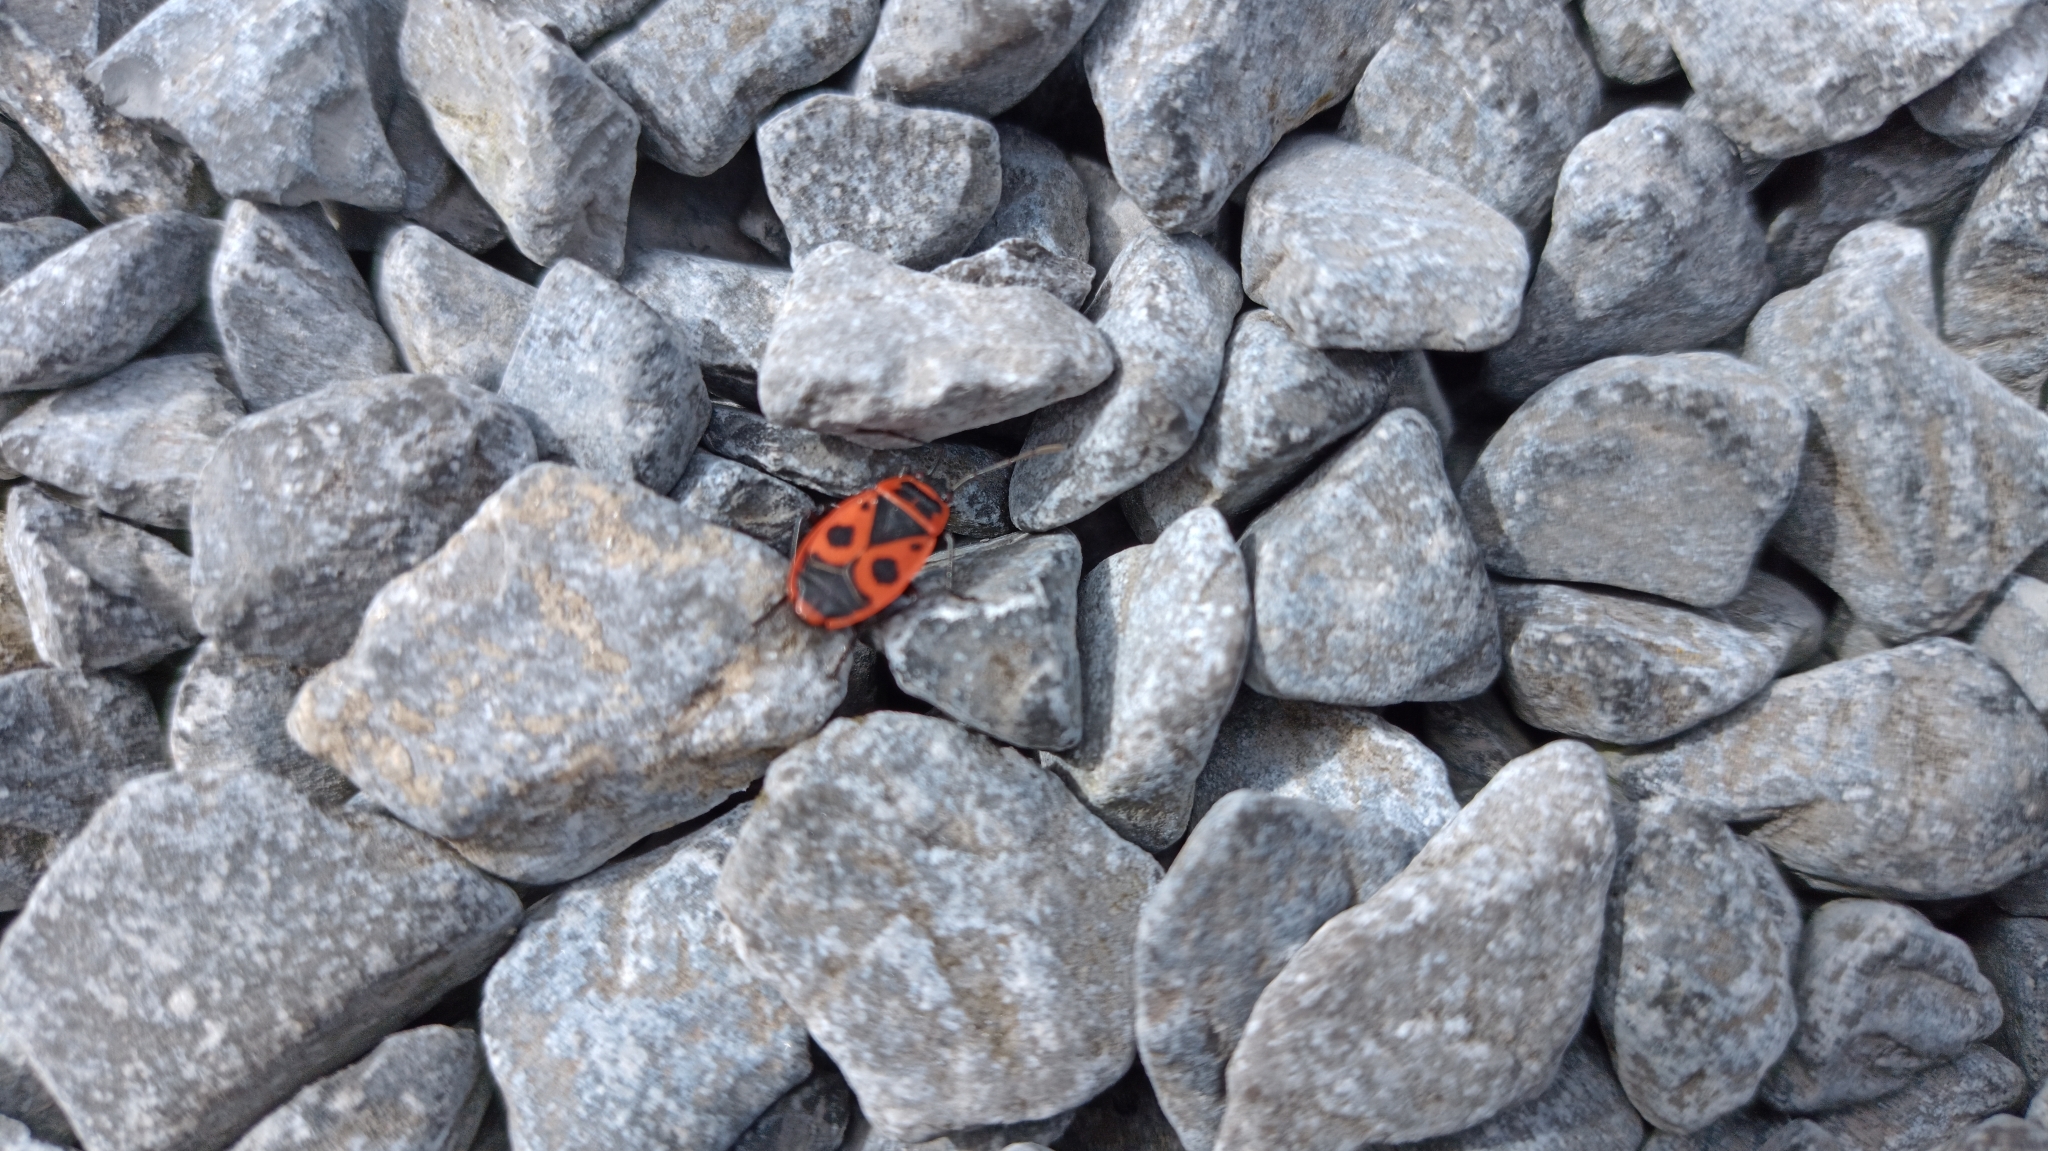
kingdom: Animalia
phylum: Arthropoda
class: Insecta
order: Hemiptera
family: Pyrrhocoridae
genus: Pyrrhocoris
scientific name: Pyrrhocoris apterus
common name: Firebug
